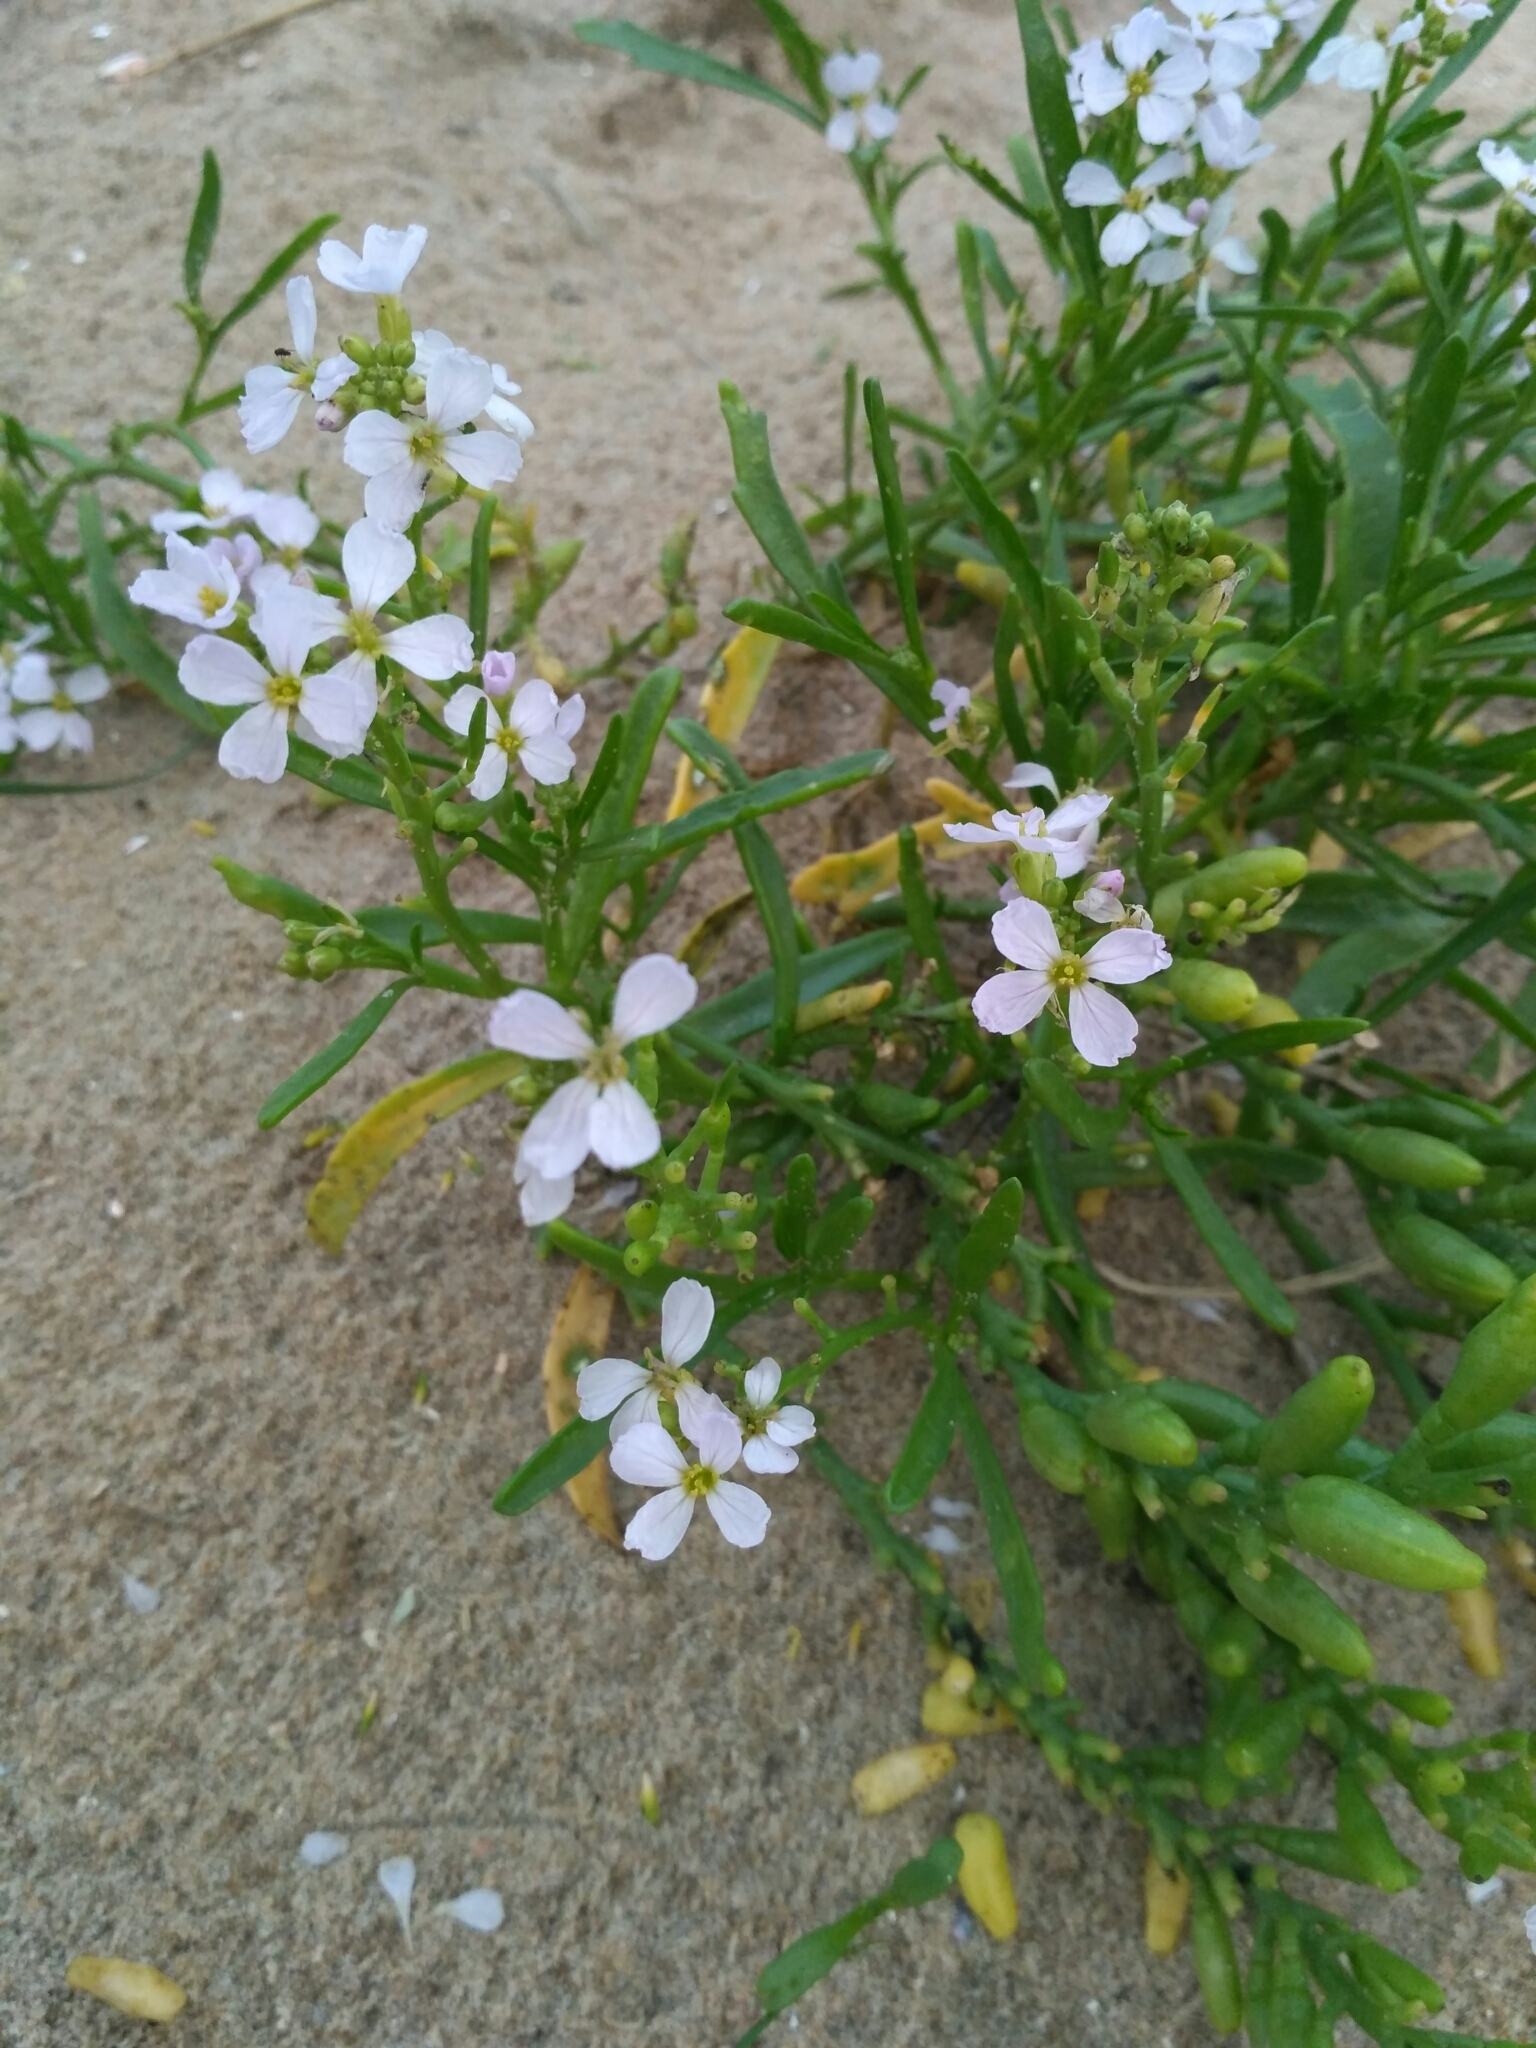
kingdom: Plantae
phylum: Tracheophyta
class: Magnoliopsida
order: Brassicales
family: Brassicaceae
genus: Cakile
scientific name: Cakile maritima
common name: Sea rocket
